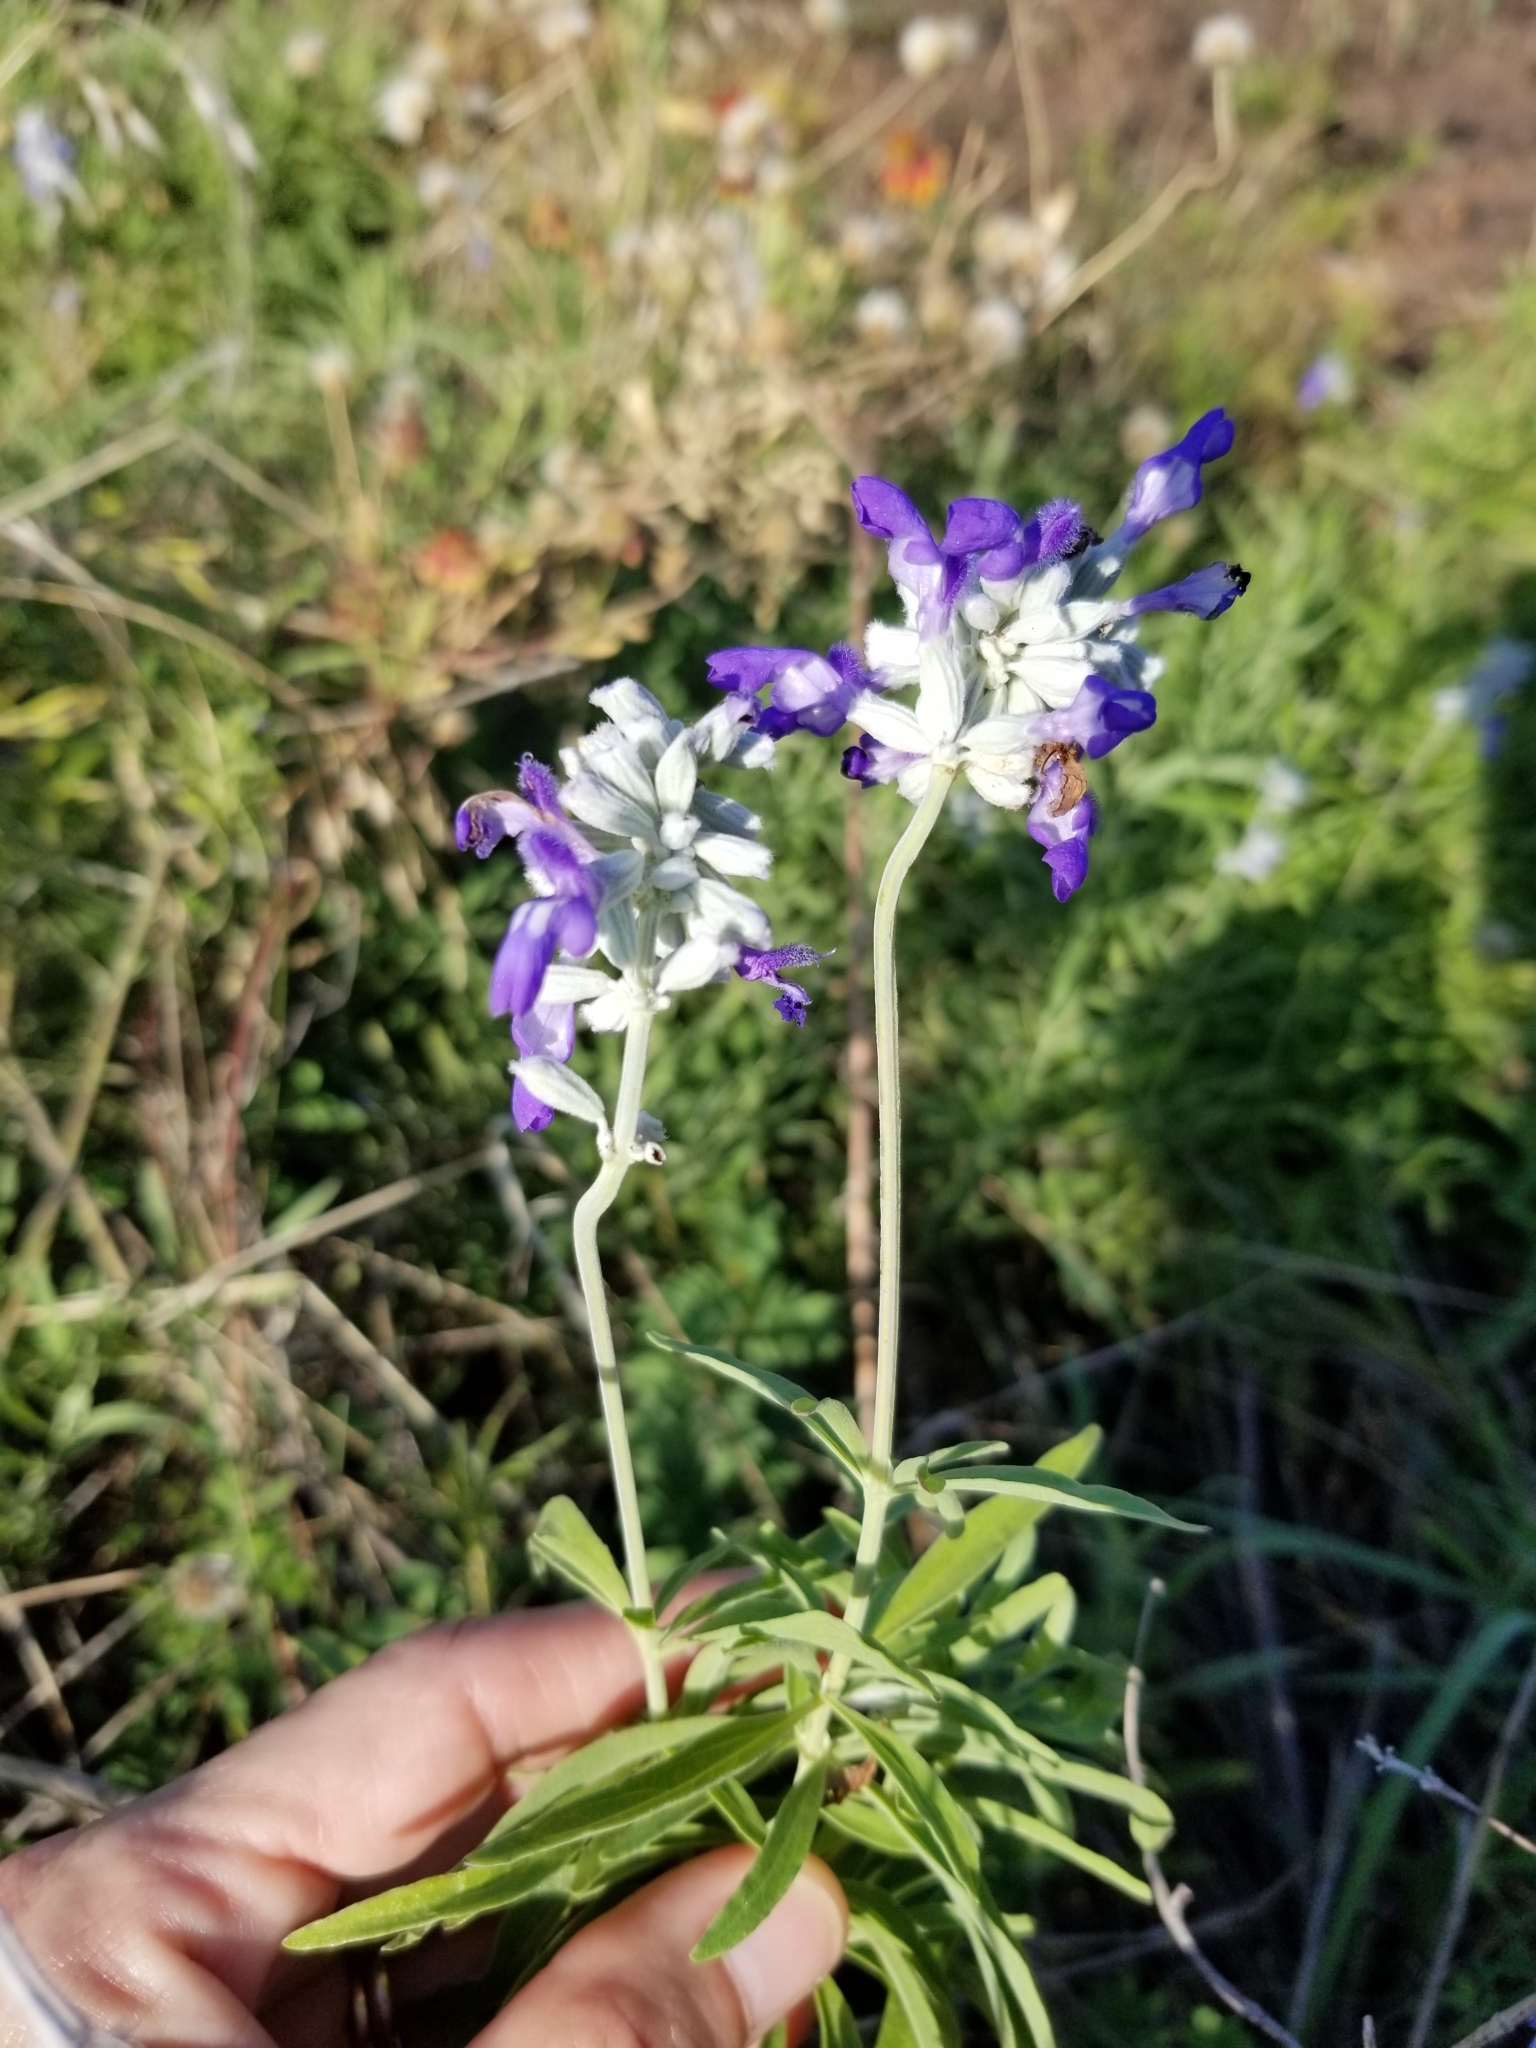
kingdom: Plantae
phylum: Tracheophyta
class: Magnoliopsida
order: Lamiales
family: Lamiaceae
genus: Salvia
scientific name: Salvia farinacea
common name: Mealy sage
